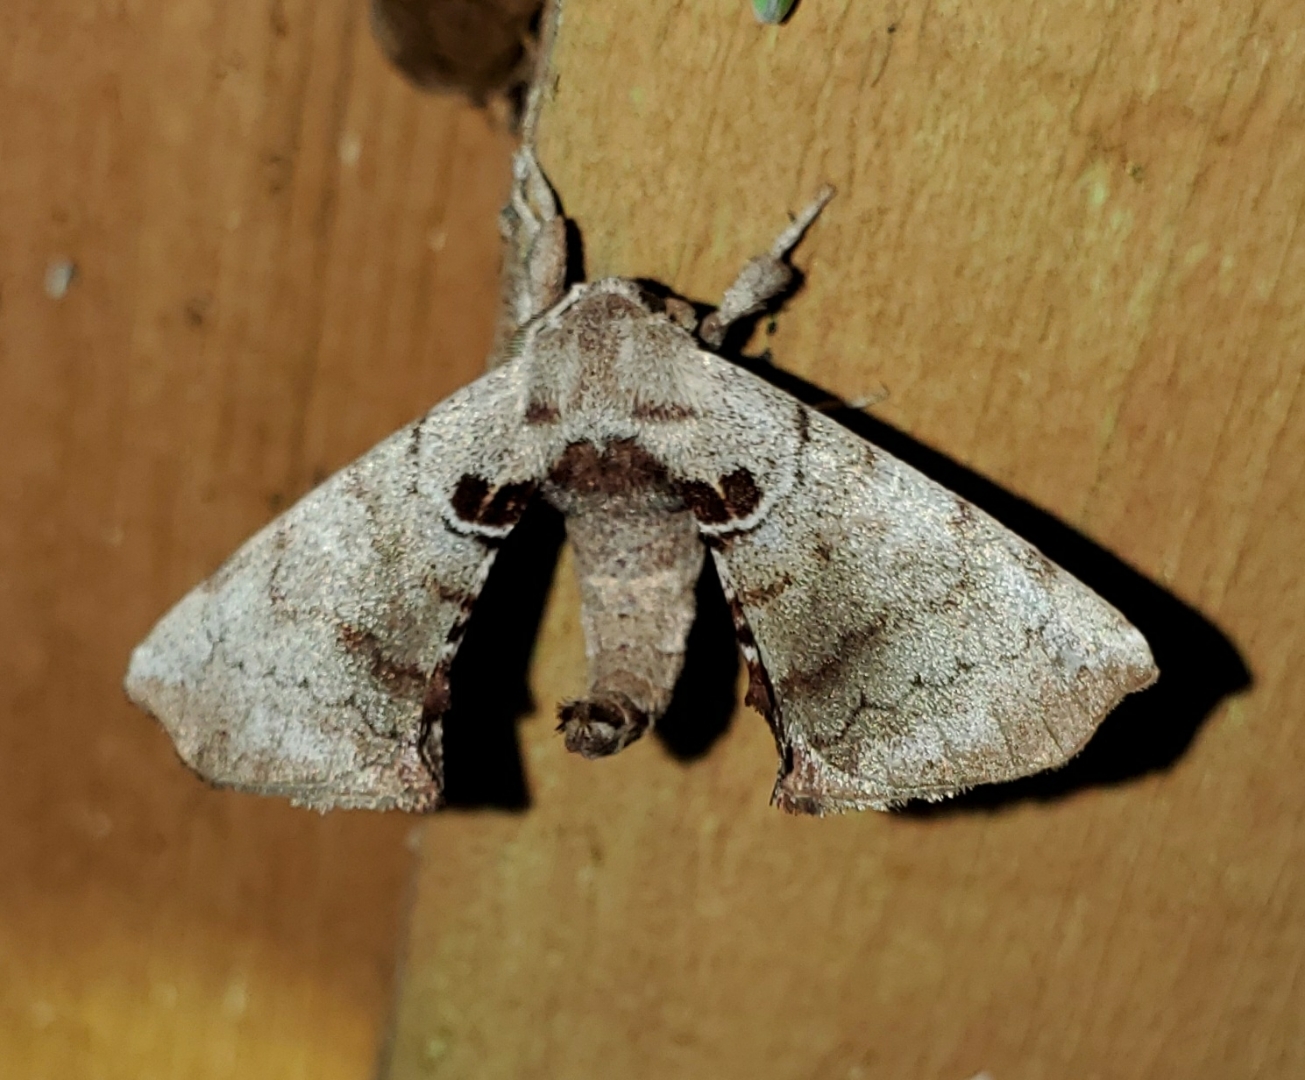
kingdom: Animalia
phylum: Arthropoda
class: Insecta
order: Lepidoptera
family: Apatelodidae
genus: Hygrochroa
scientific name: Hygrochroa Apatelodes torrefacta
